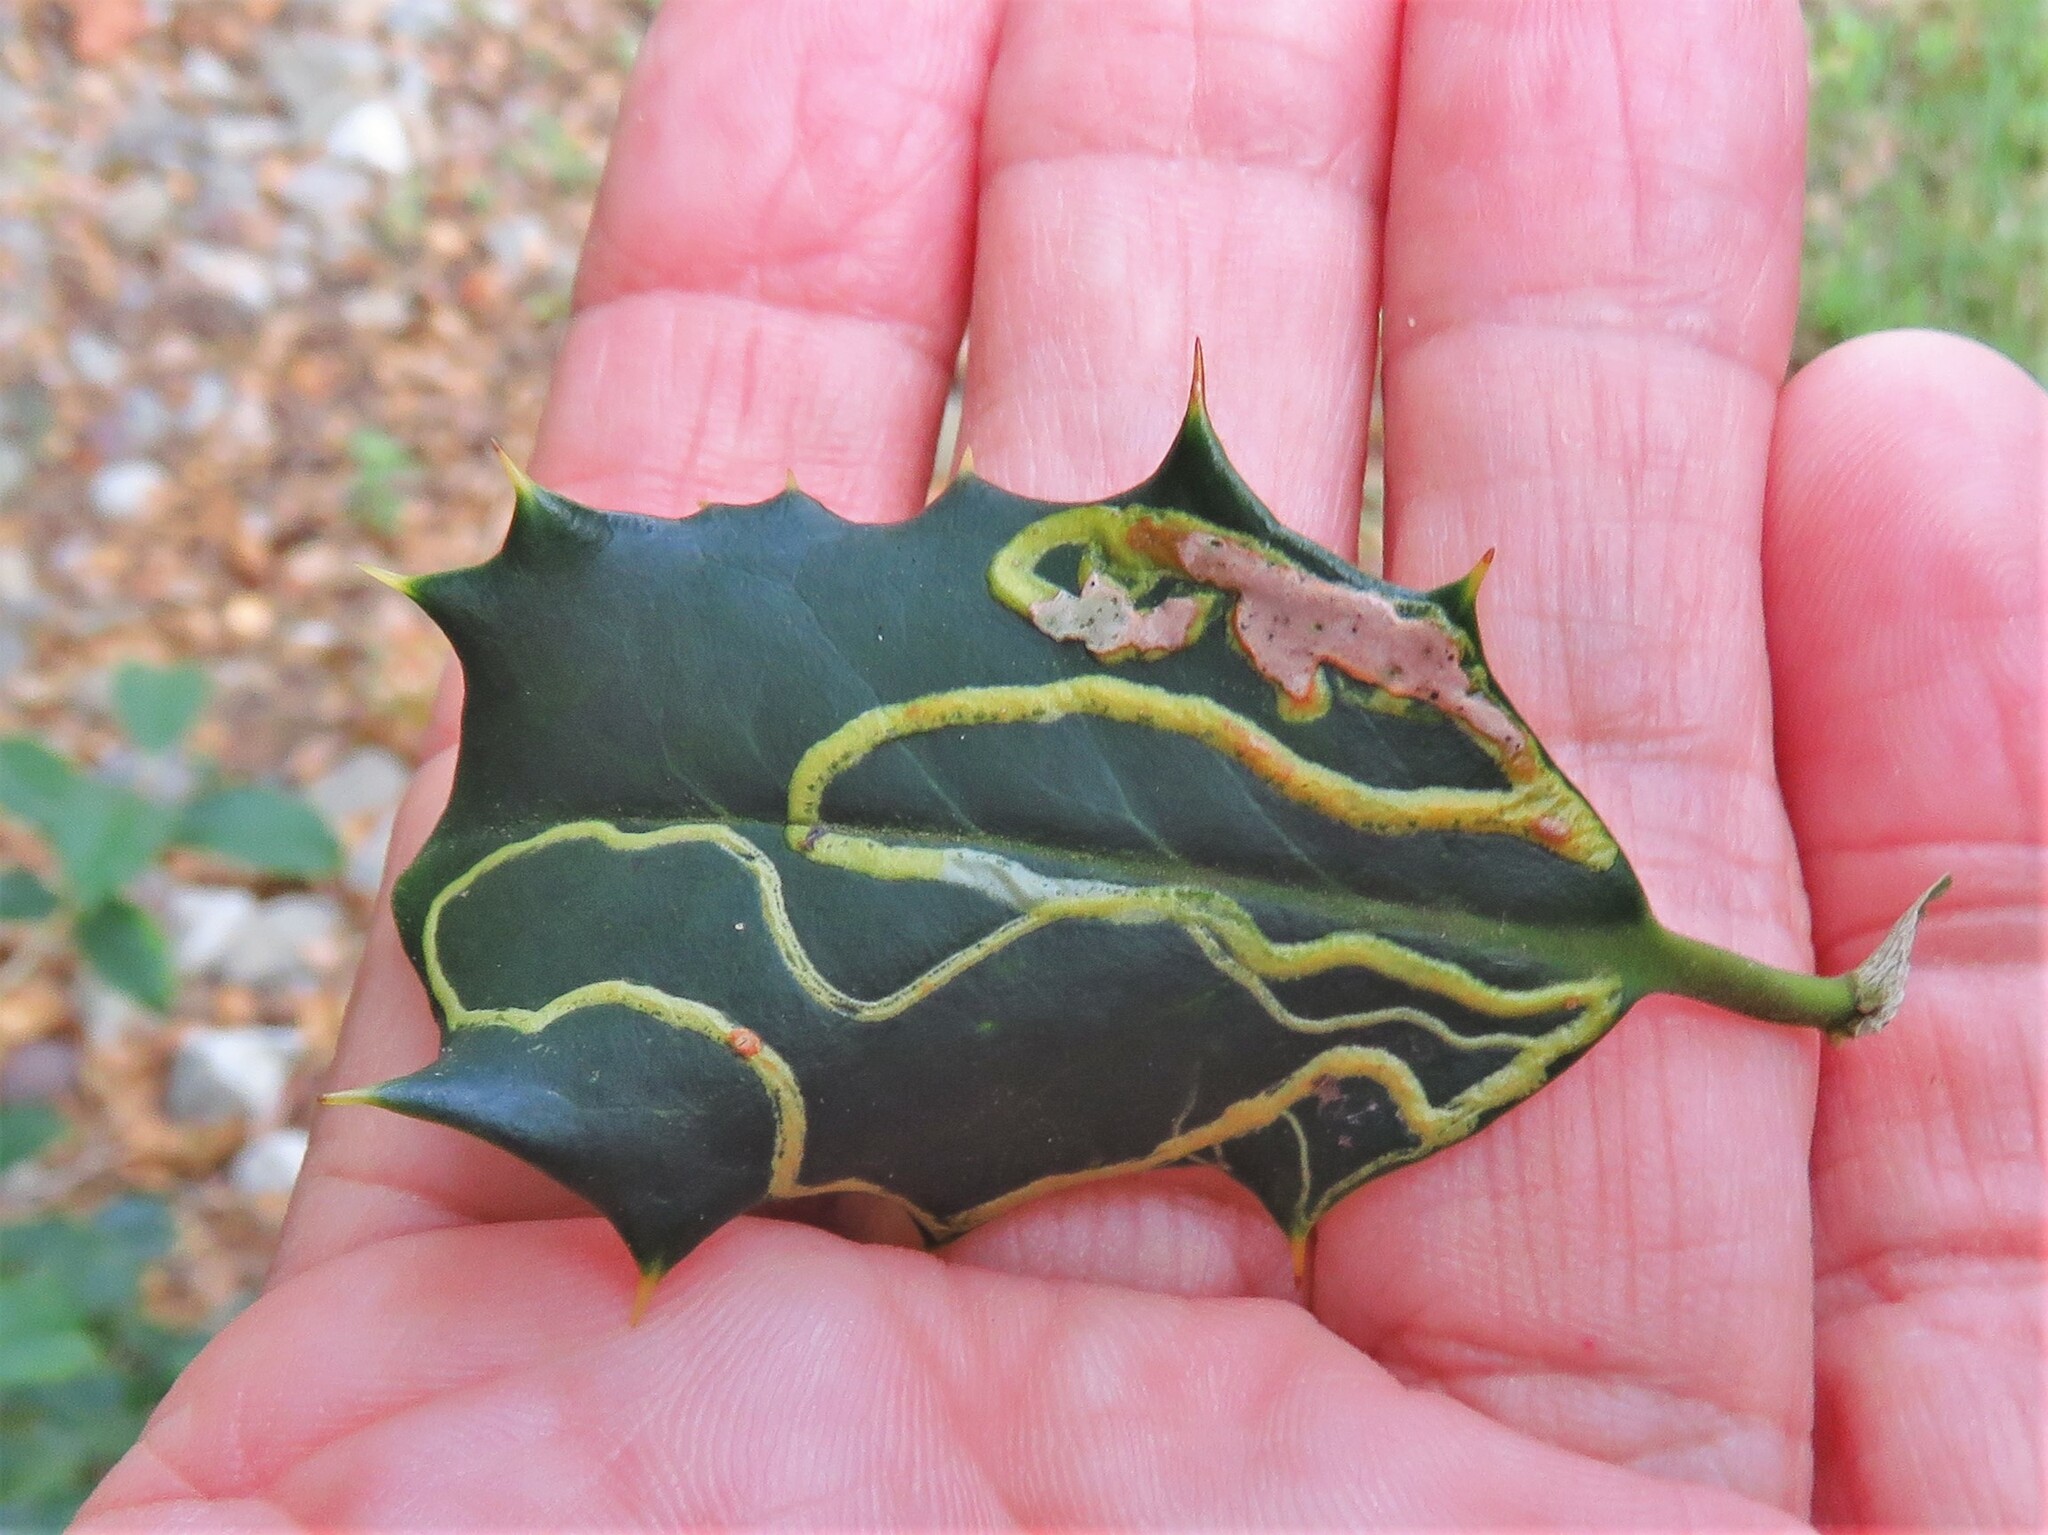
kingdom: Animalia
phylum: Arthropoda
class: Insecta
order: Diptera
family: Agromyzidae
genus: Phytomyza
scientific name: Phytomyza opacae
